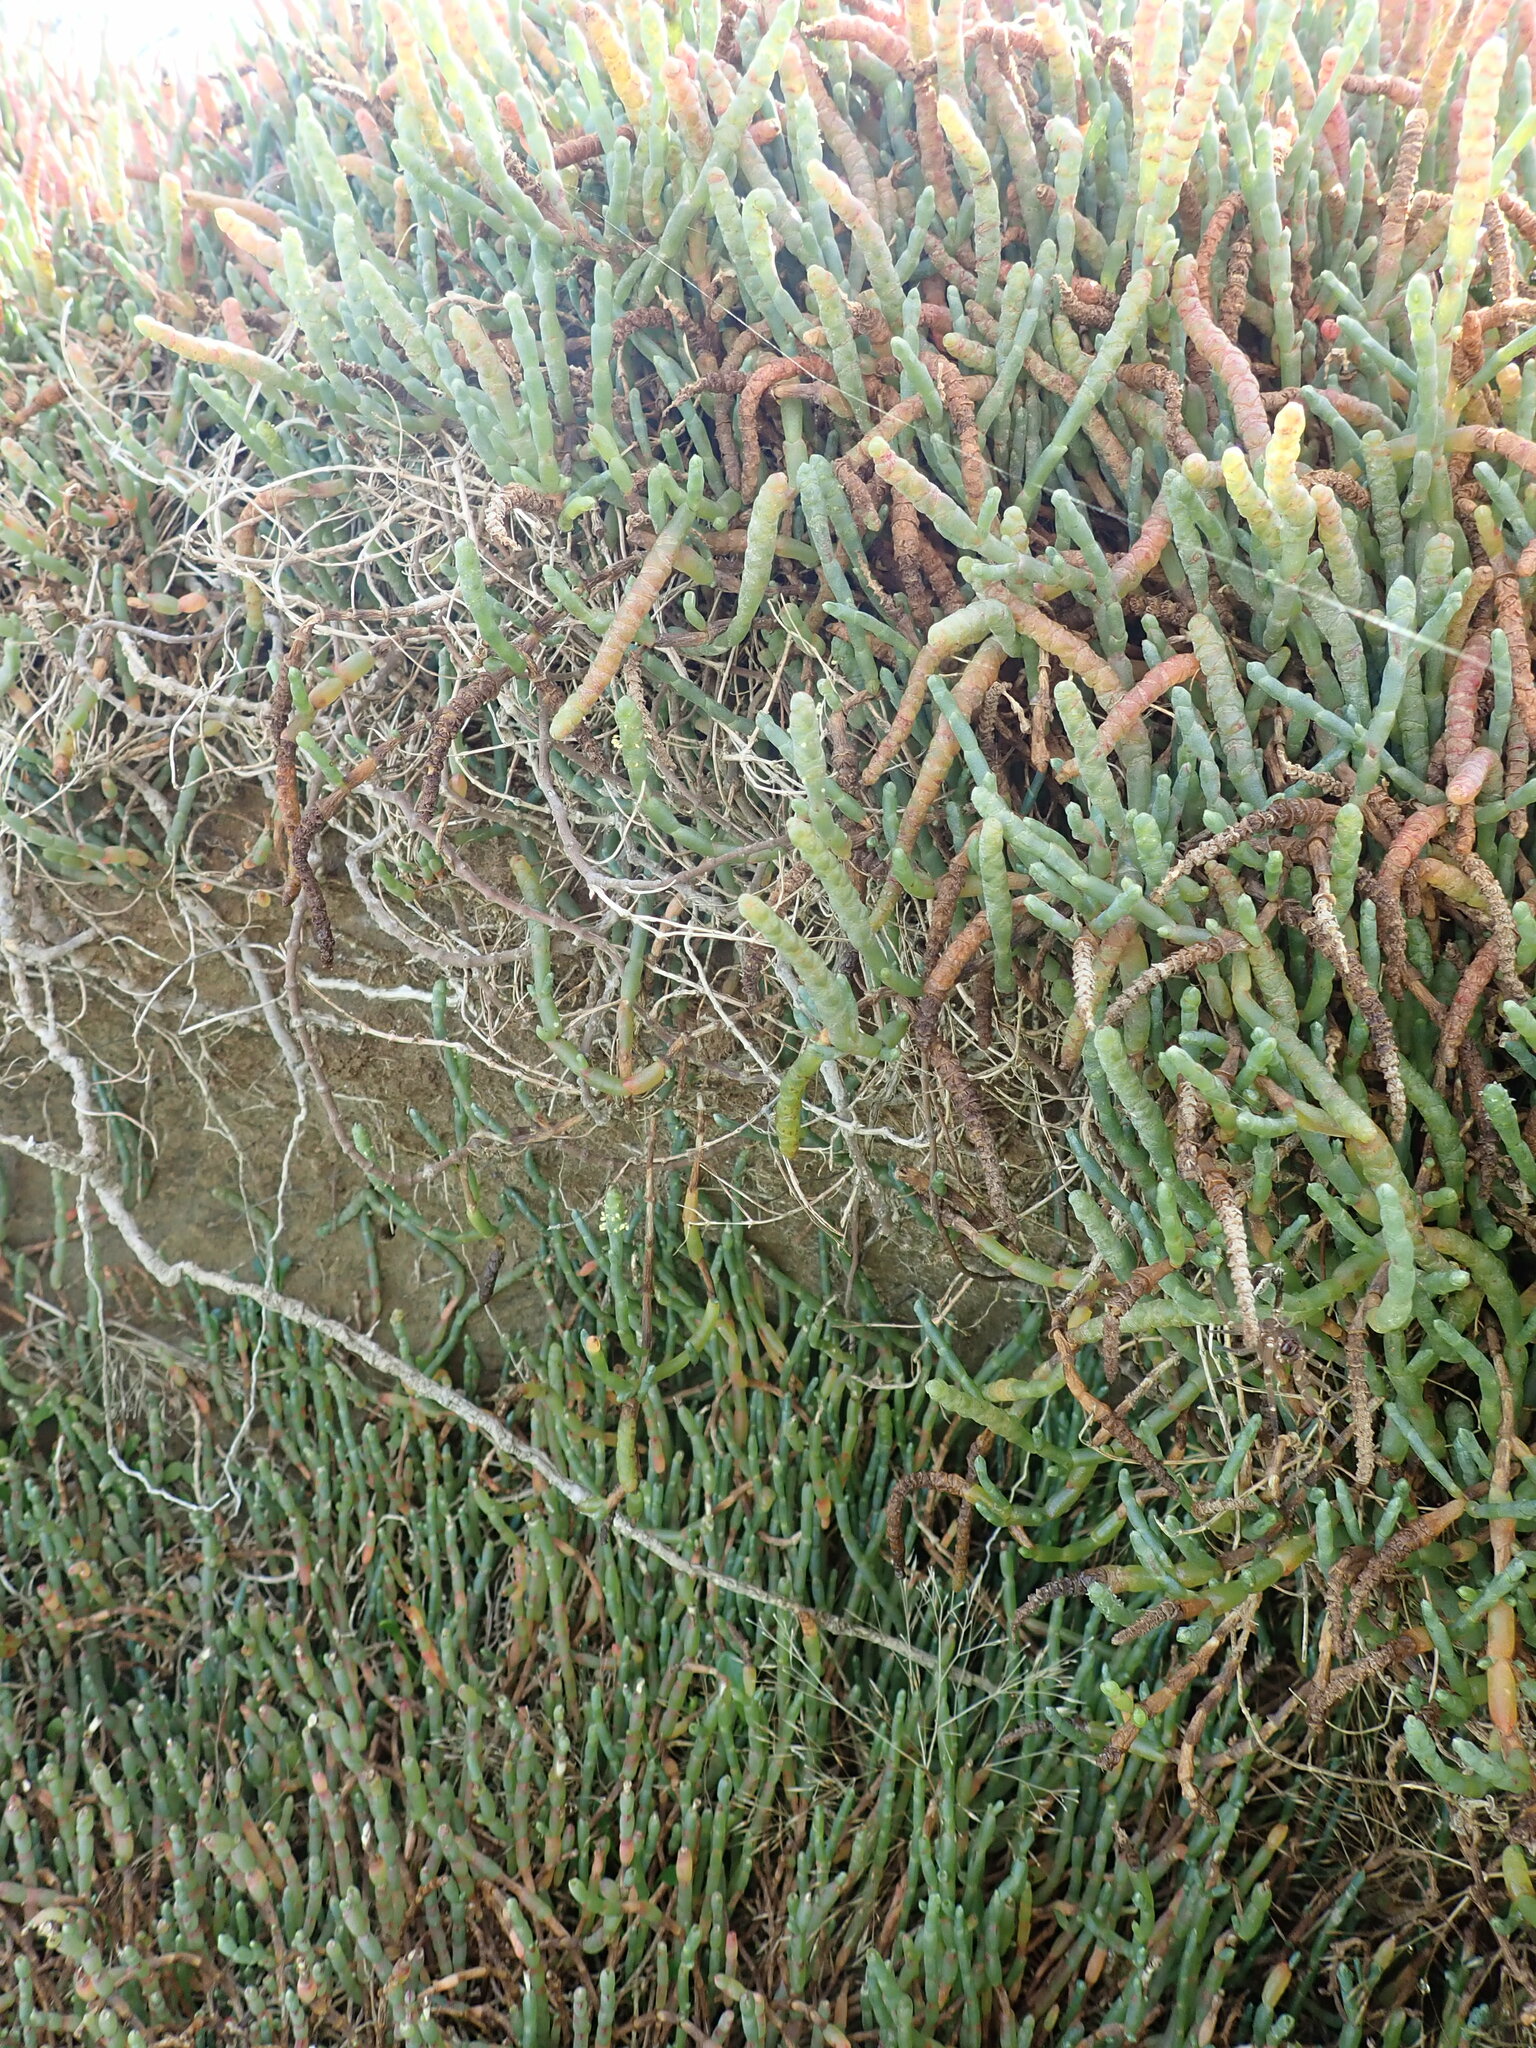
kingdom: Plantae
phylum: Tracheophyta
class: Magnoliopsida
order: Caryophyllales
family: Amaranthaceae
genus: Salicornia
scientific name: Salicornia quinqueflora
